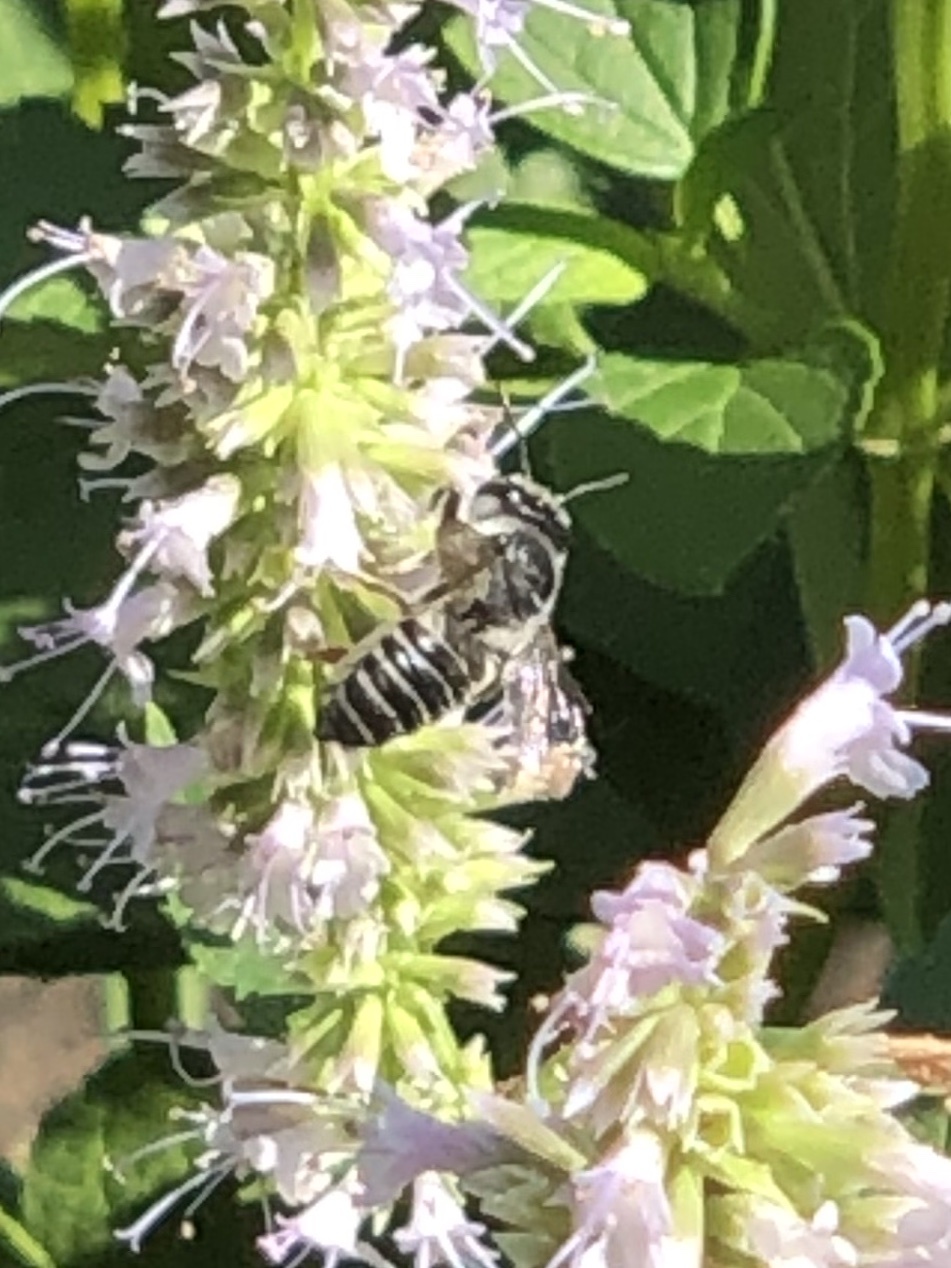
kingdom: Animalia
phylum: Arthropoda
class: Insecta
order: Hymenoptera
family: Megachilidae
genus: Megachile
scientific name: Megachile
